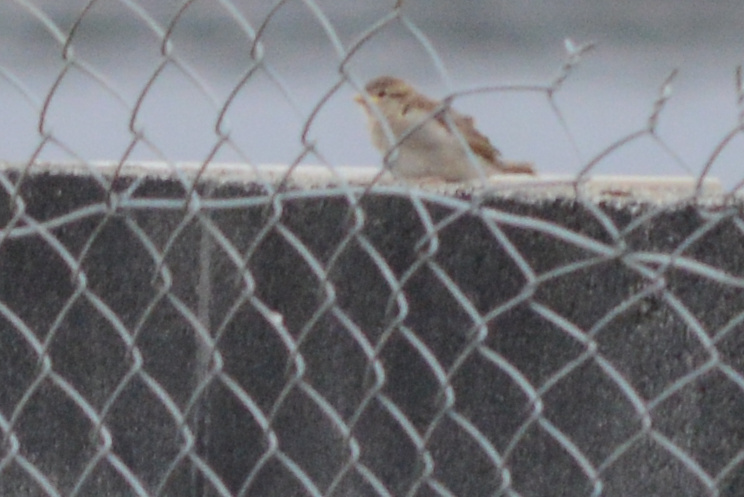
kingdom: Animalia
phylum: Chordata
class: Aves
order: Passeriformes
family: Passeridae
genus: Passer
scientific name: Passer domesticus
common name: House sparrow
